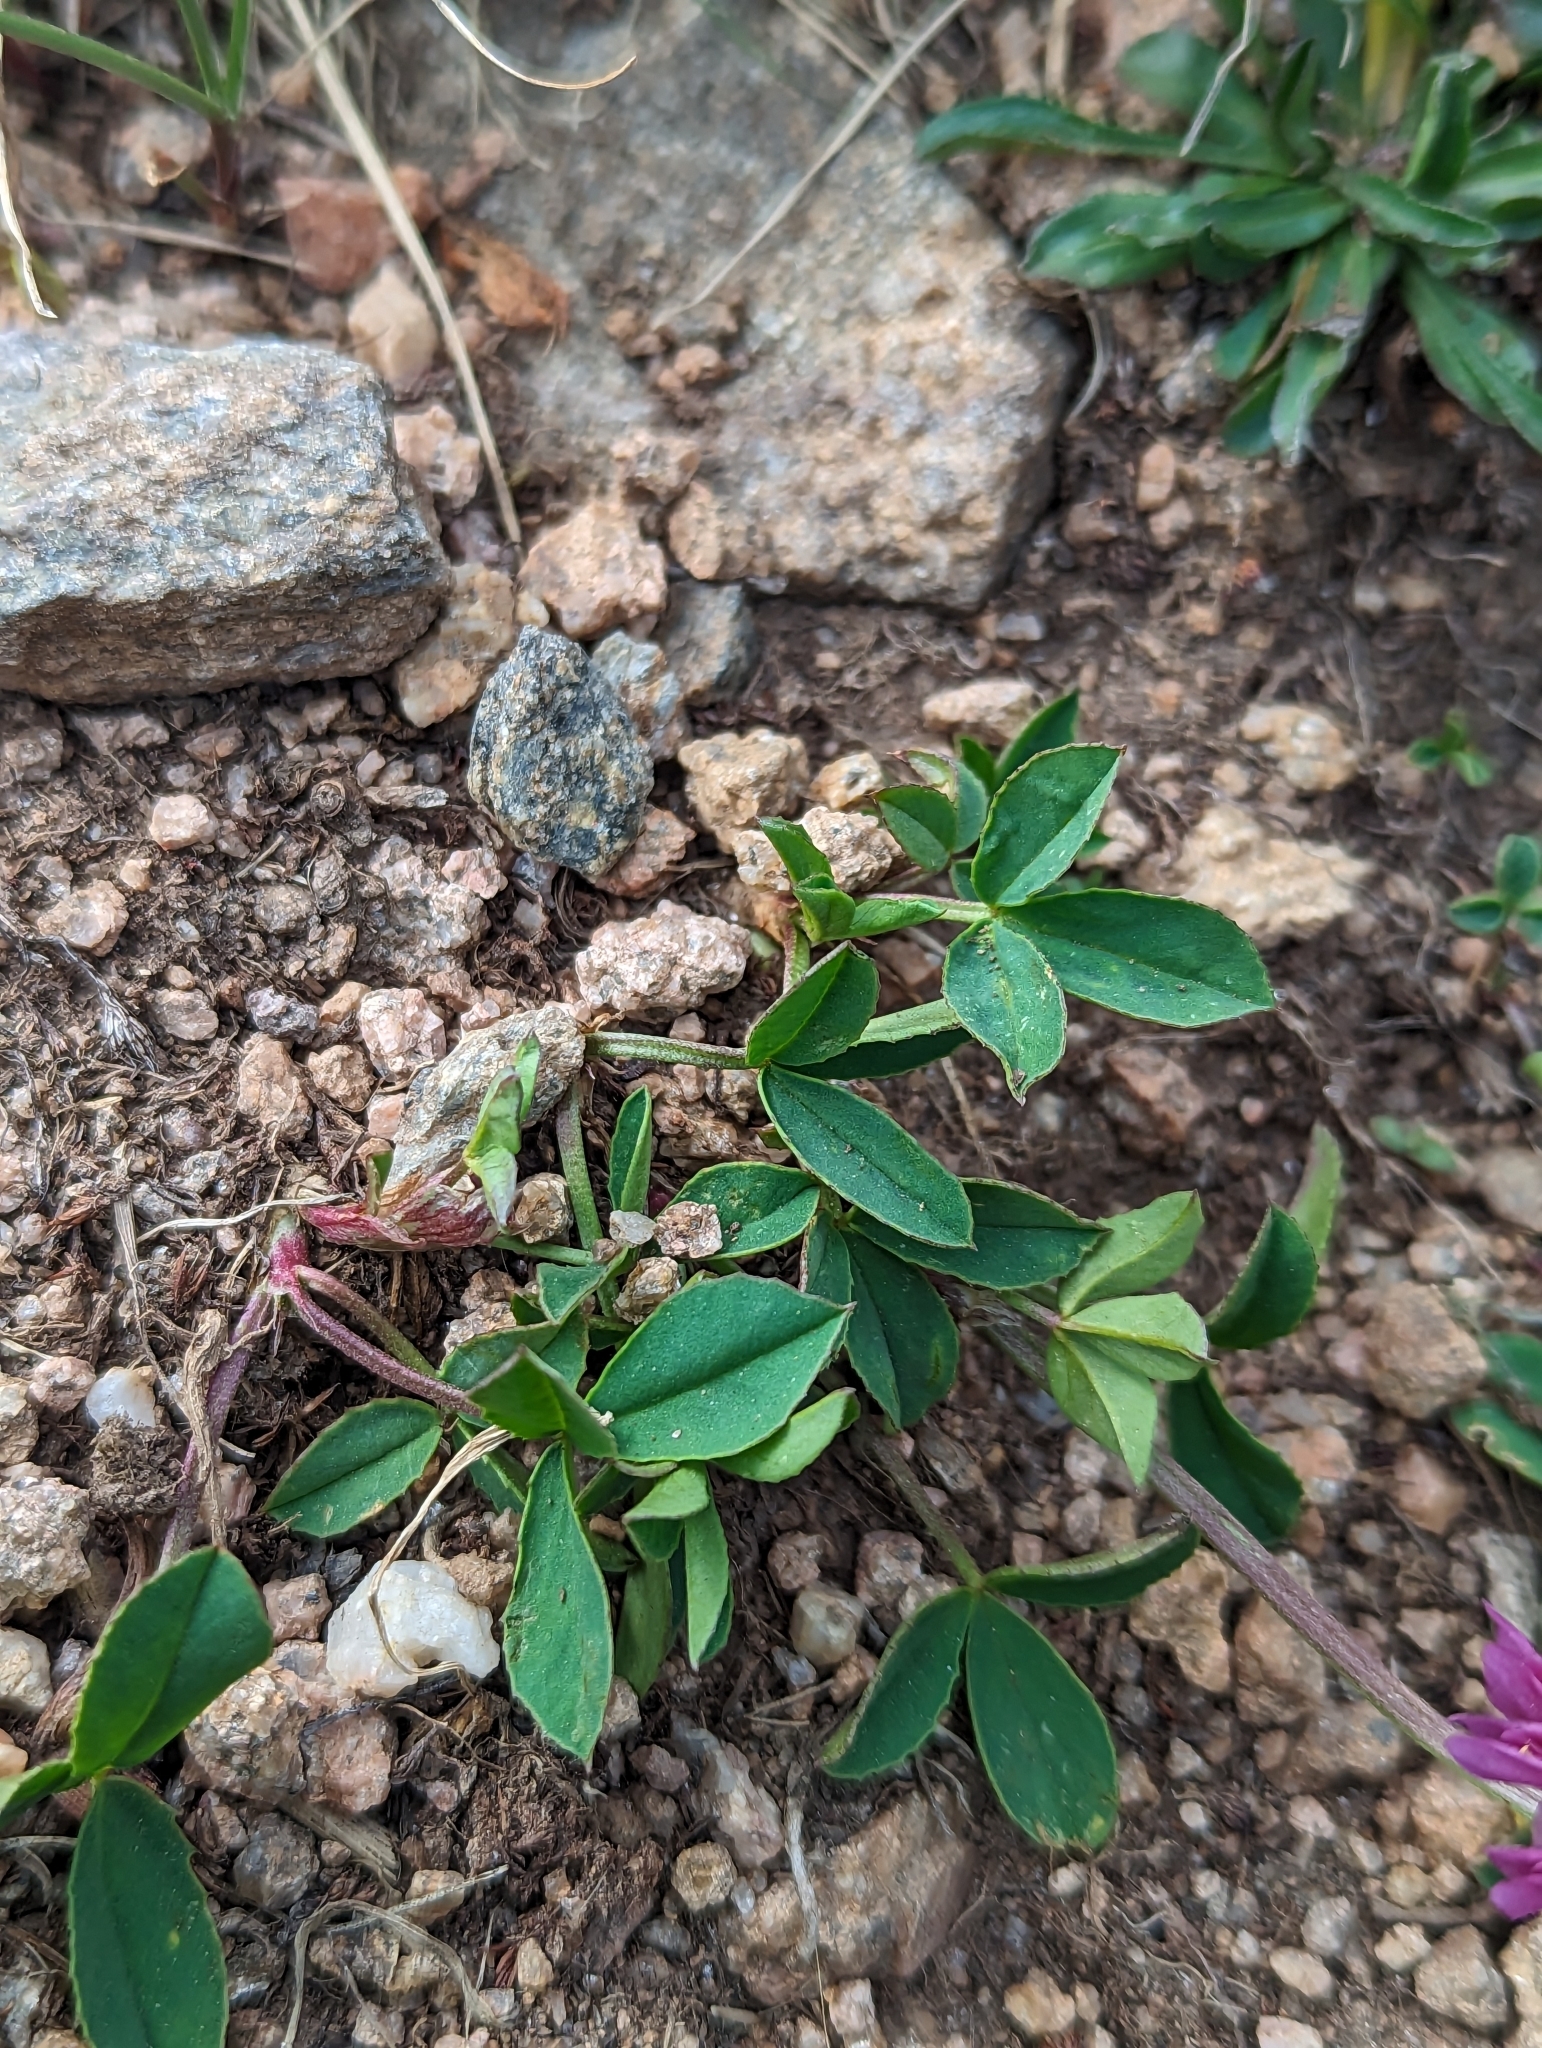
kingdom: Plantae
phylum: Tracheophyta
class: Magnoliopsida
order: Fabales
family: Fabaceae
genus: Trifolium
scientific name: Trifolium parryi
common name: Parry's clover
